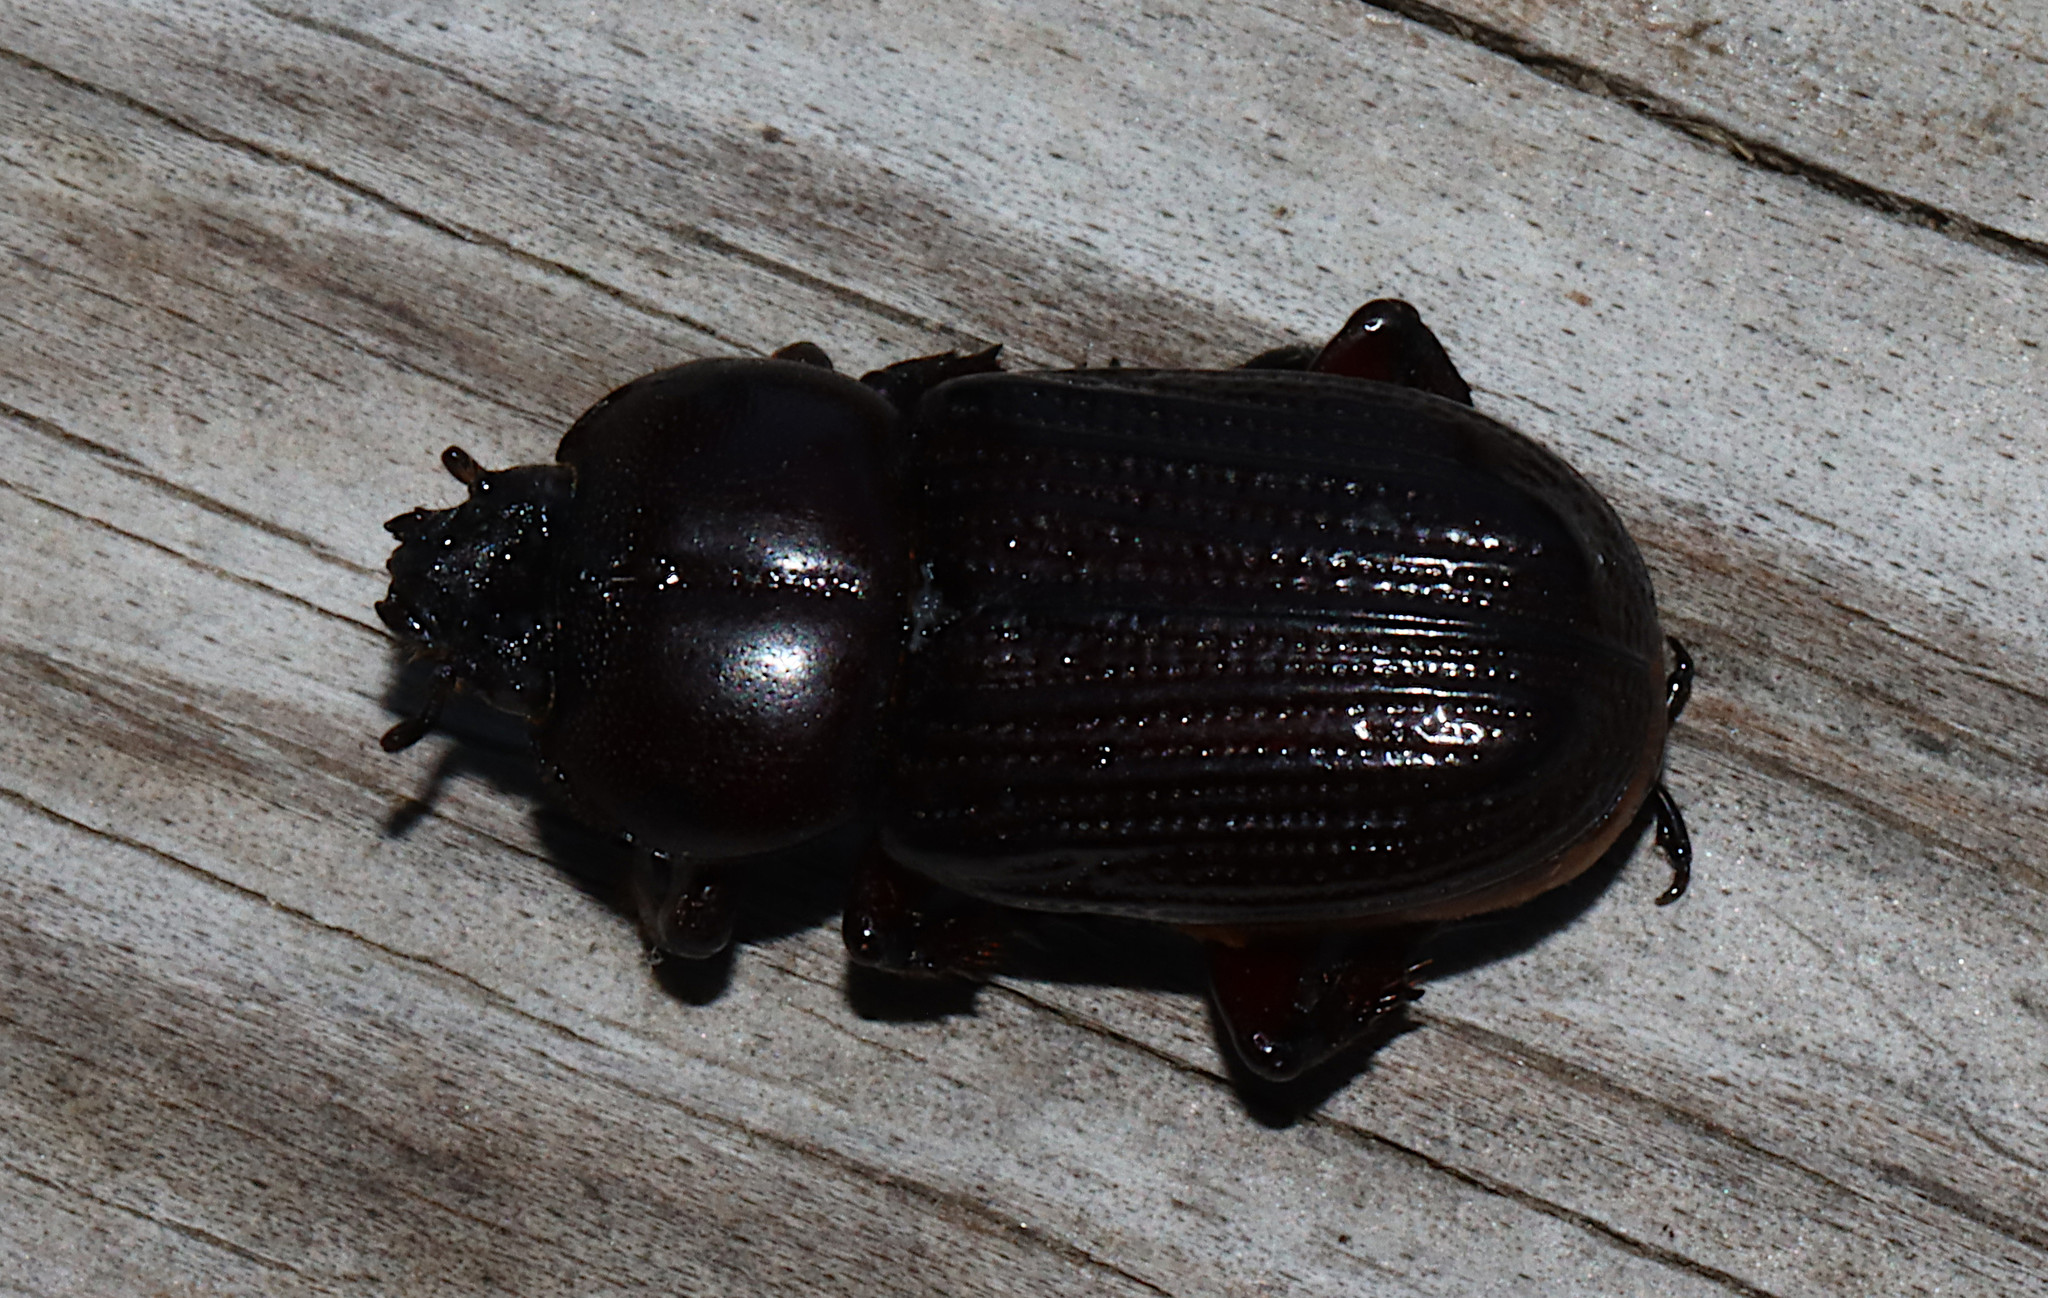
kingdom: Animalia
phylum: Arthropoda
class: Insecta
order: Coleoptera
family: Scarabaeidae
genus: Phileurus
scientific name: Phileurus valgus
